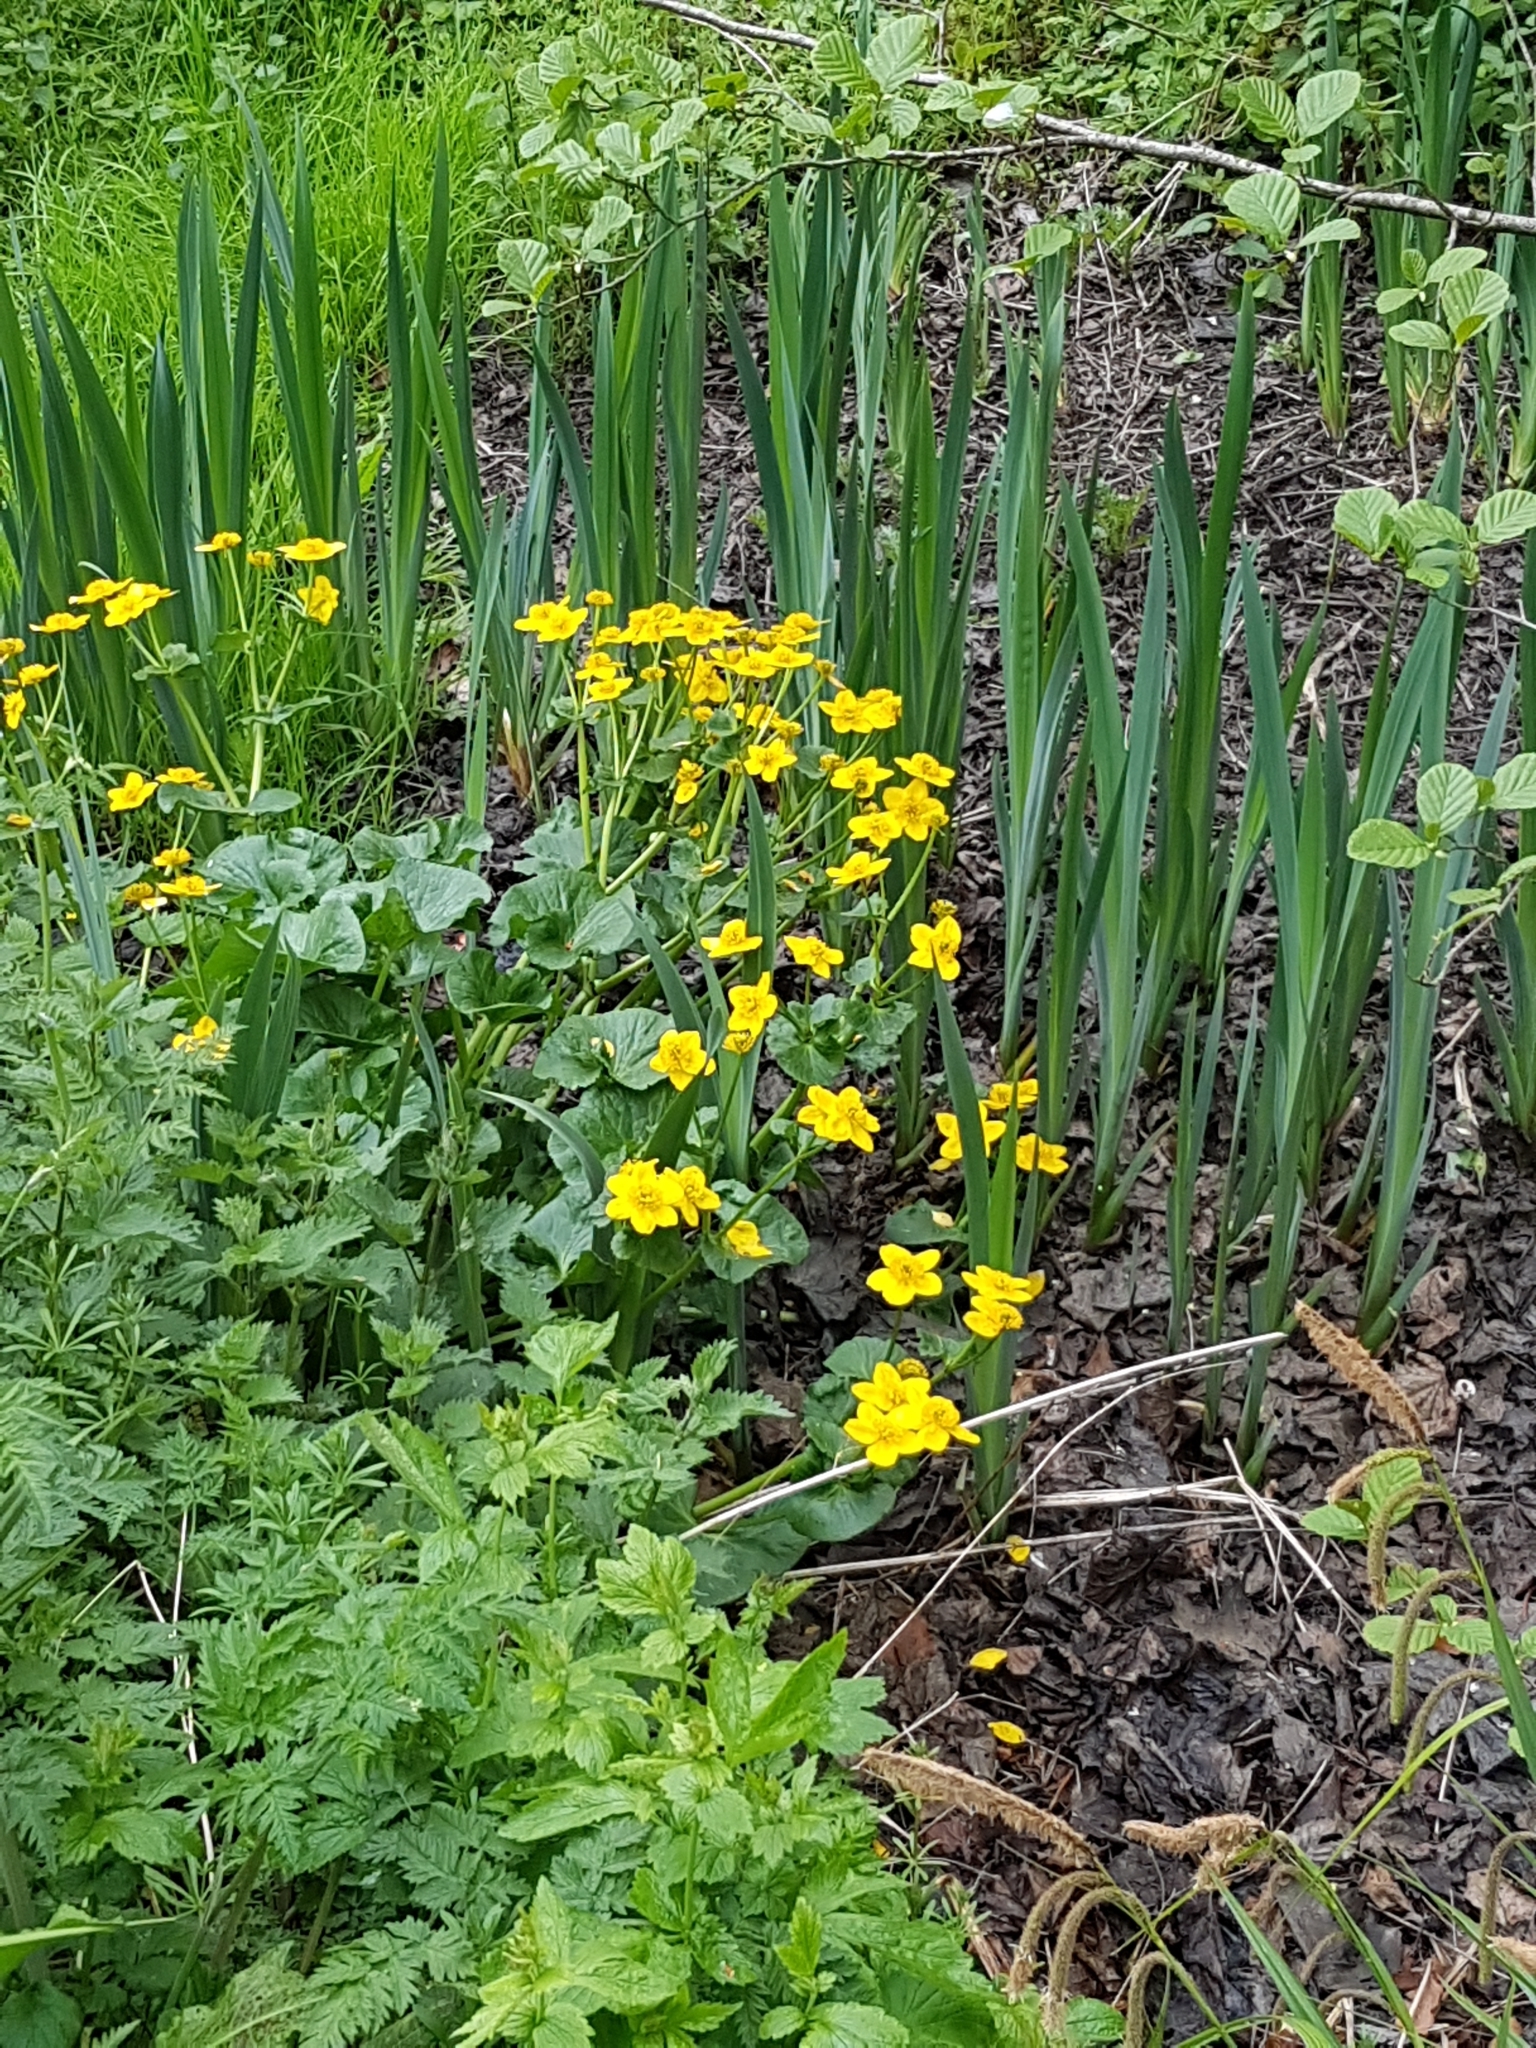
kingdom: Plantae
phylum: Tracheophyta
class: Magnoliopsida
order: Ranunculales
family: Ranunculaceae
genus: Caltha
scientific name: Caltha palustris
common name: Marsh marigold
